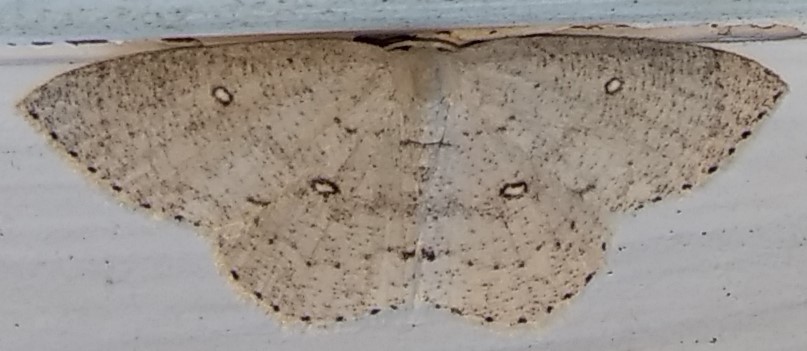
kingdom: Animalia
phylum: Arthropoda
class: Insecta
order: Lepidoptera
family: Geometridae
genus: Cyclophora
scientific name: Cyclophora pendulinaria
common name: Sweet fern geometer
